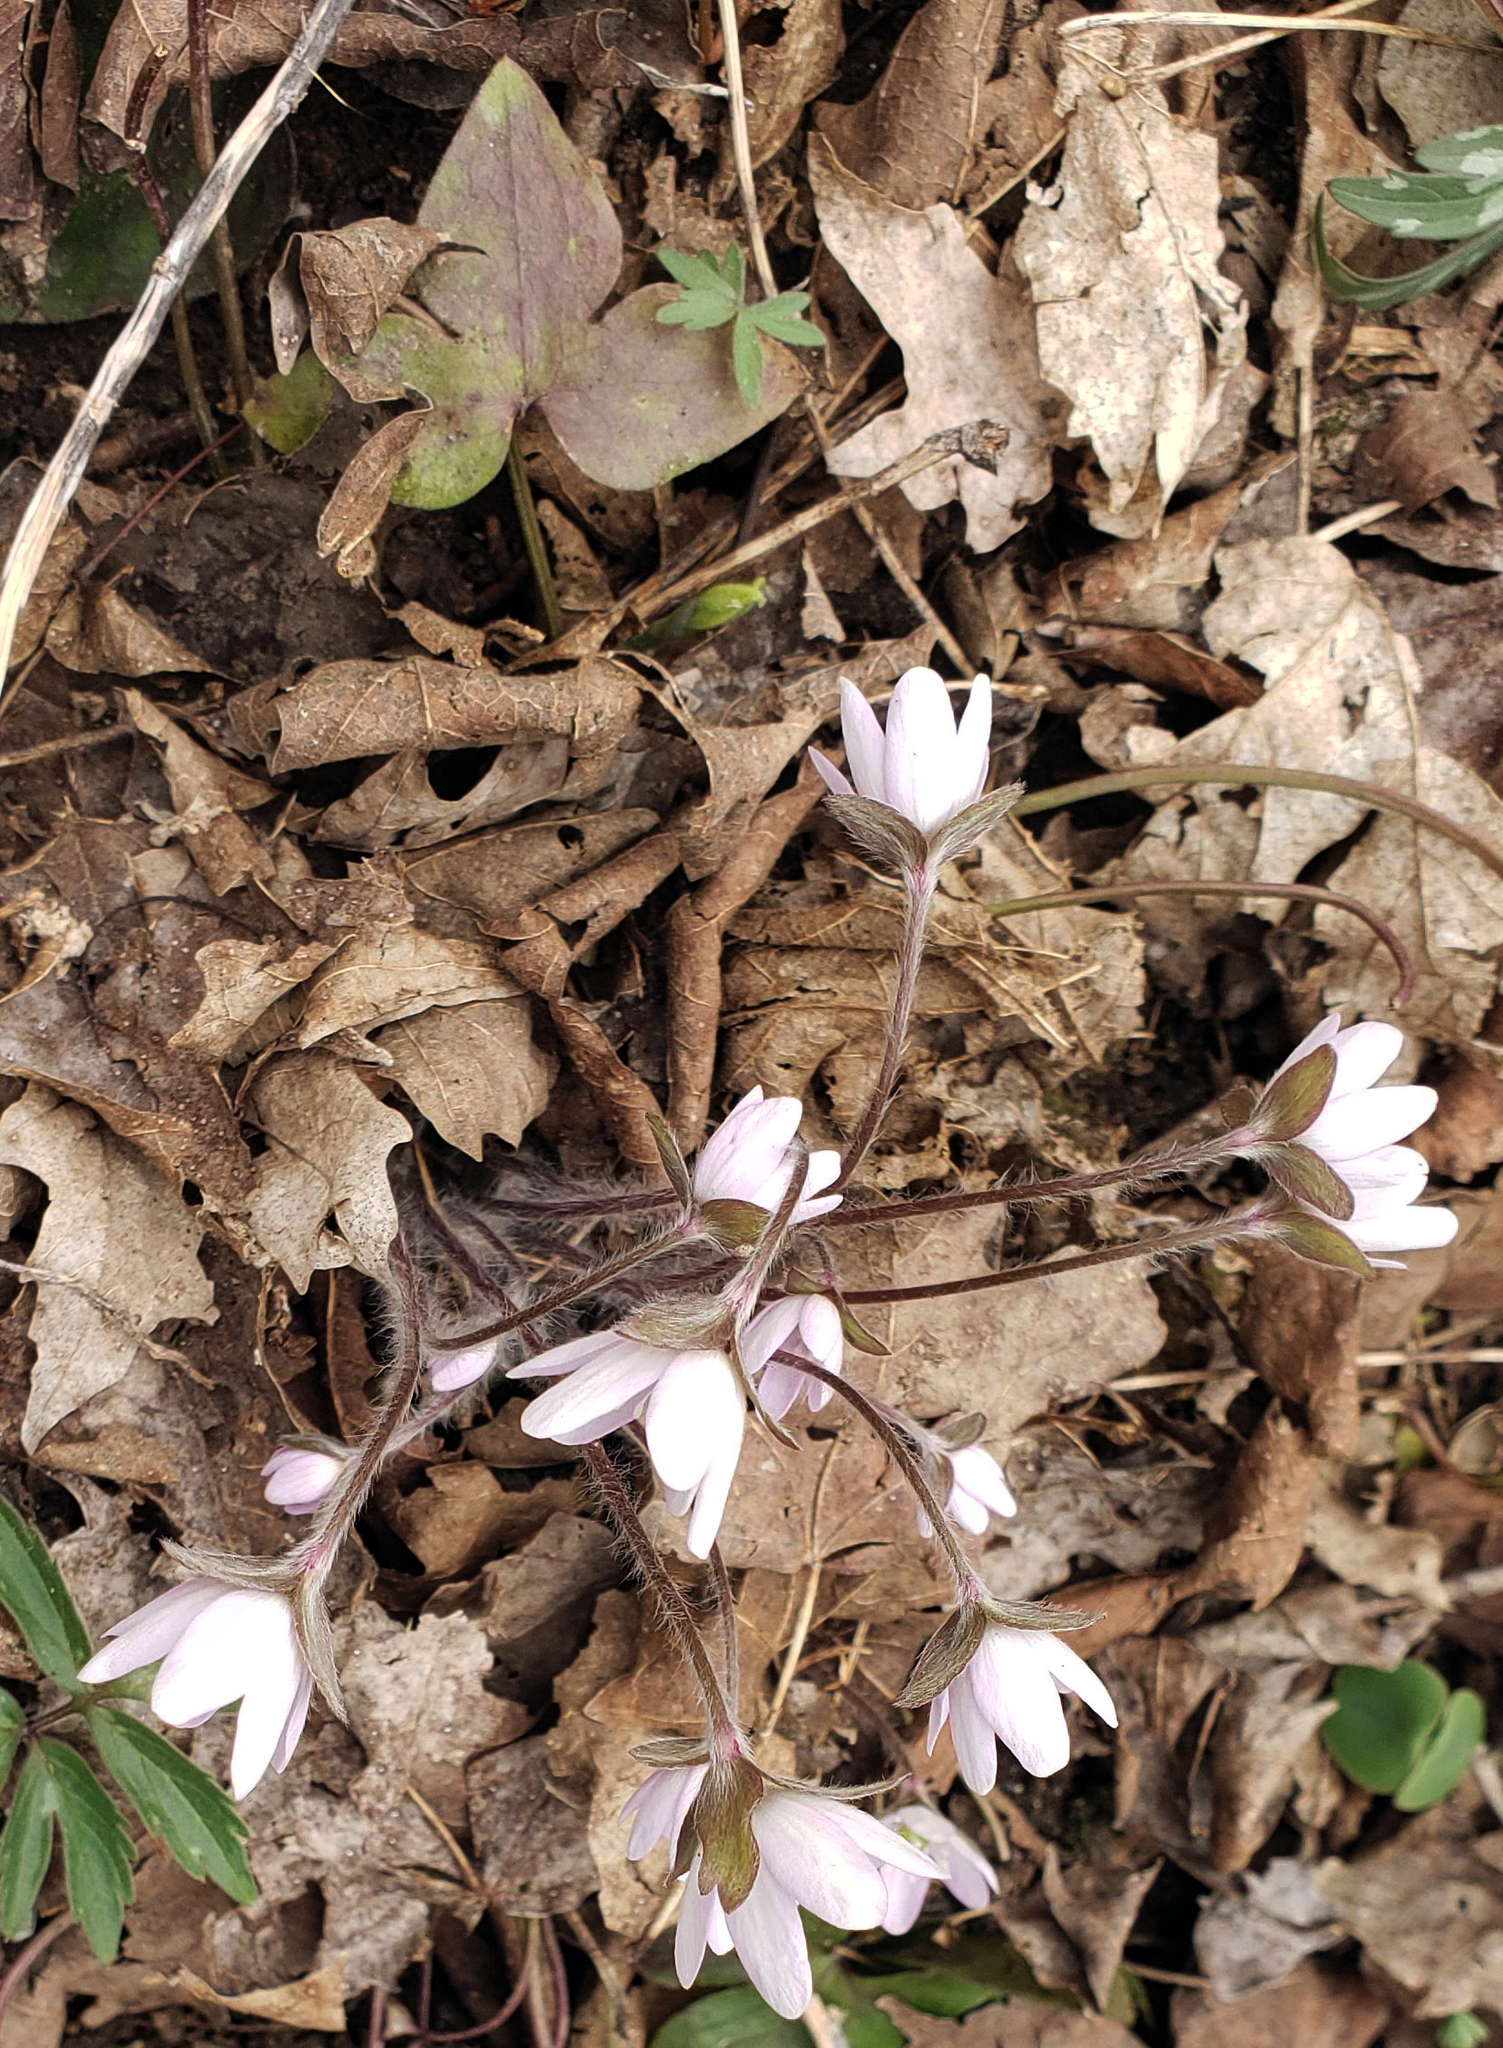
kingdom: Plantae
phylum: Tracheophyta
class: Magnoliopsida
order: Ranunculales
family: Ranunculaceae
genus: Hepatica
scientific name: Hepatica acutiloba
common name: Sharp-lobed hepatica
